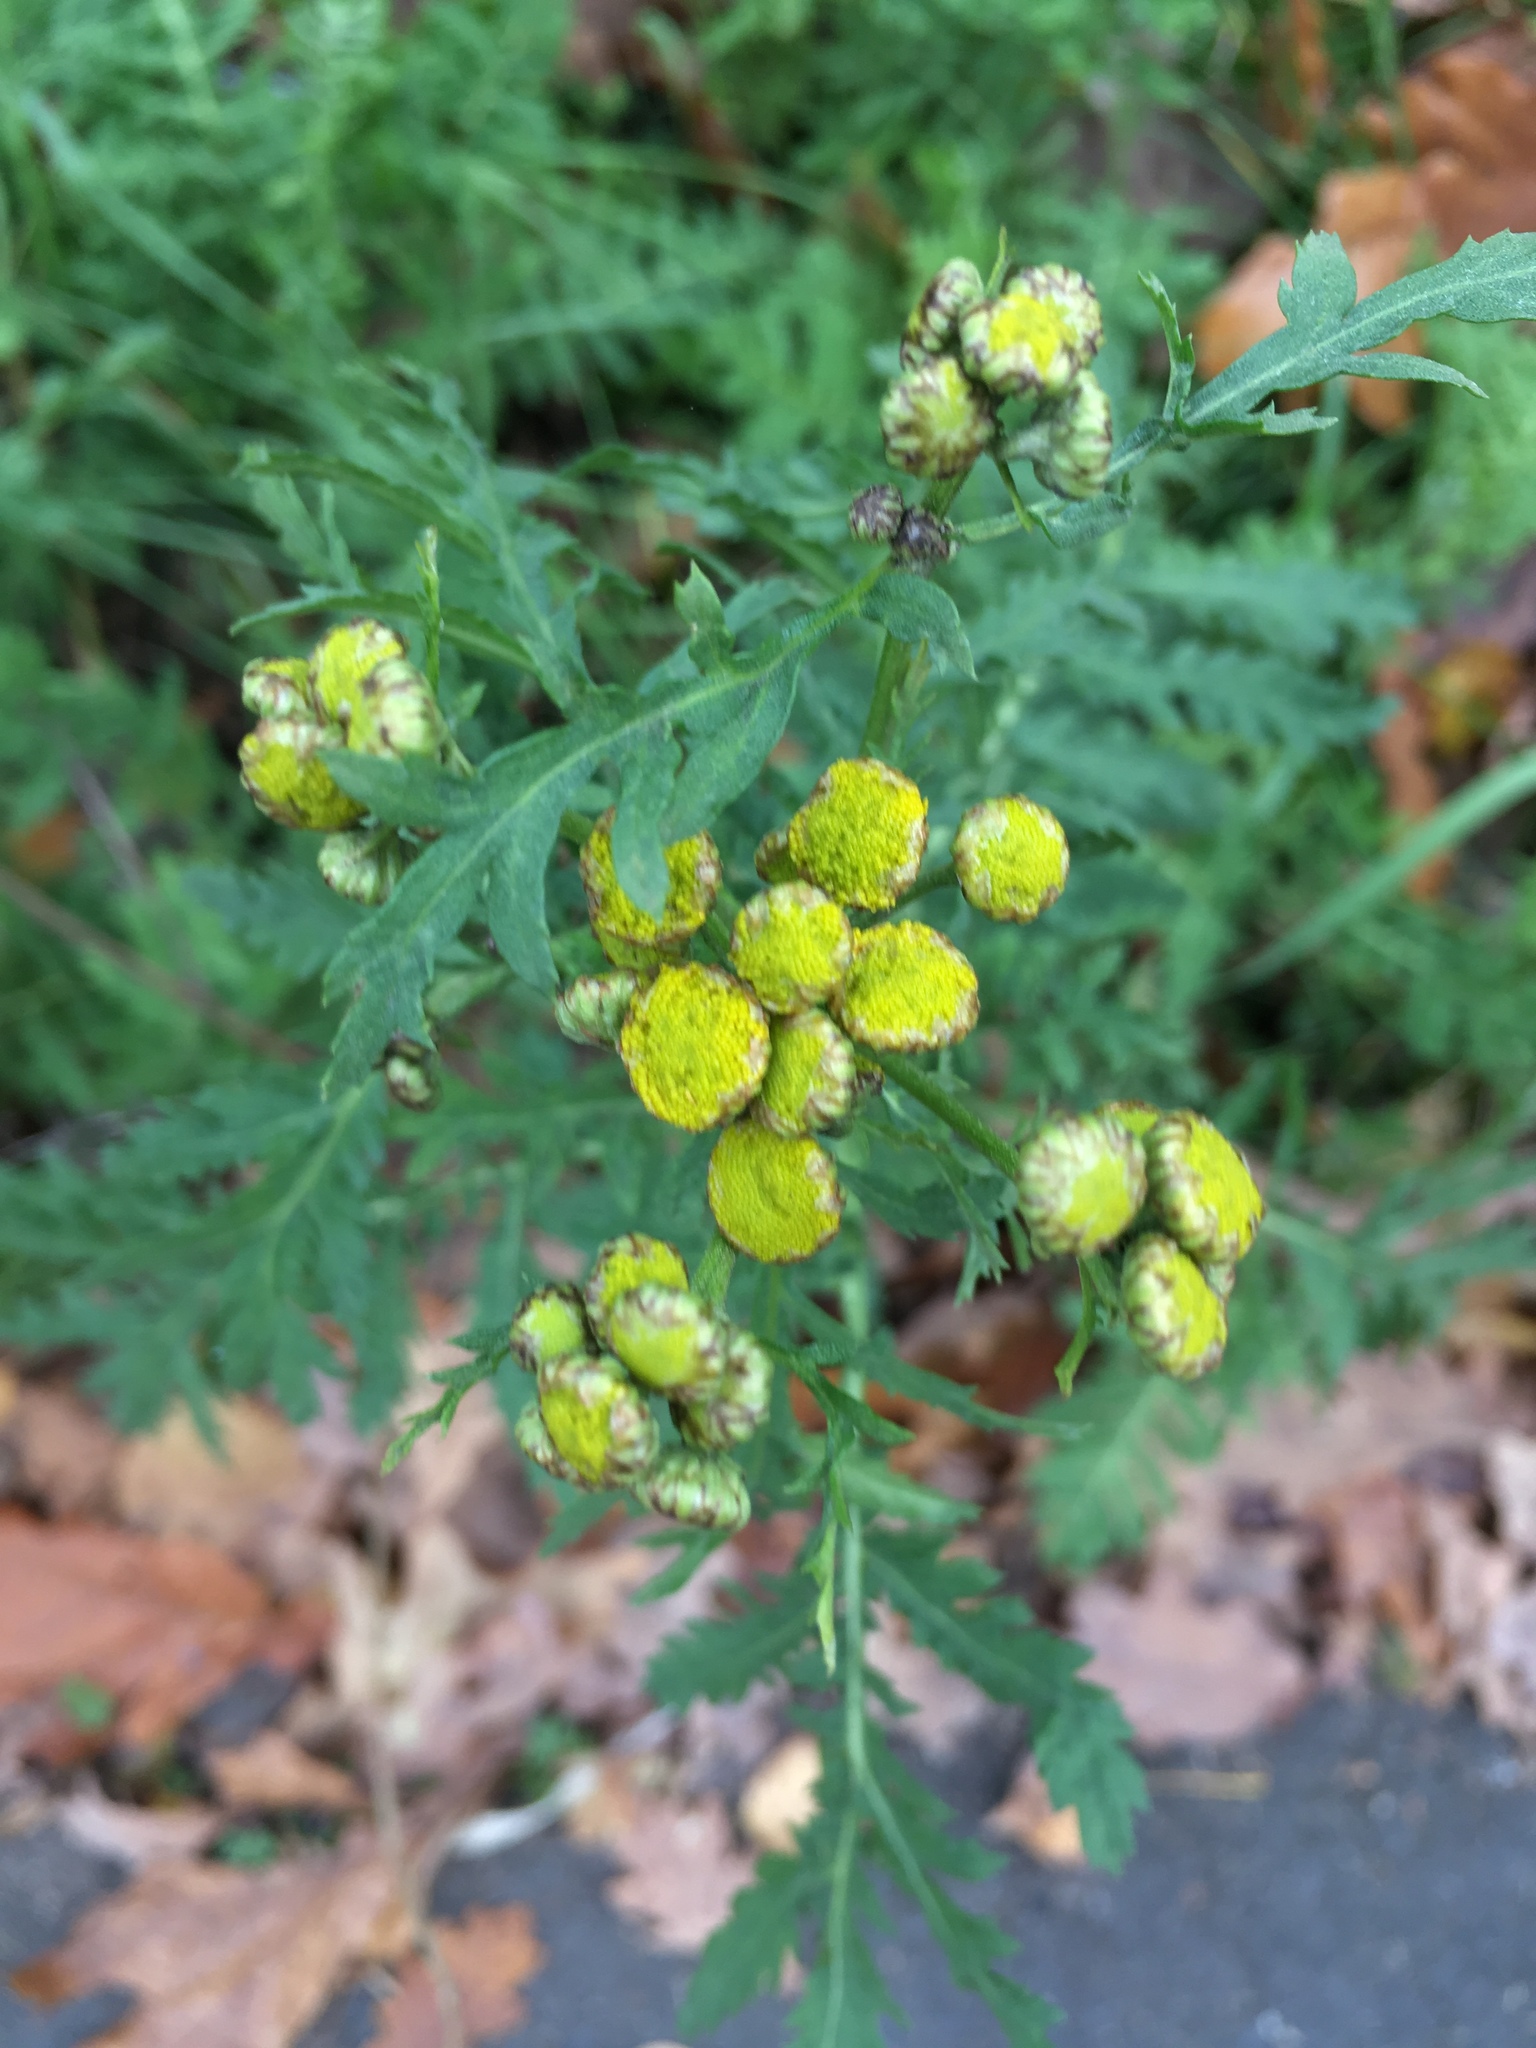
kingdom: Plantae
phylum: Tracheophyta
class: Magnoliopsida
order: Asterales
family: Asteraceae
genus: Tanacetum
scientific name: Tanacetum vulgare
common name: Common tansy
